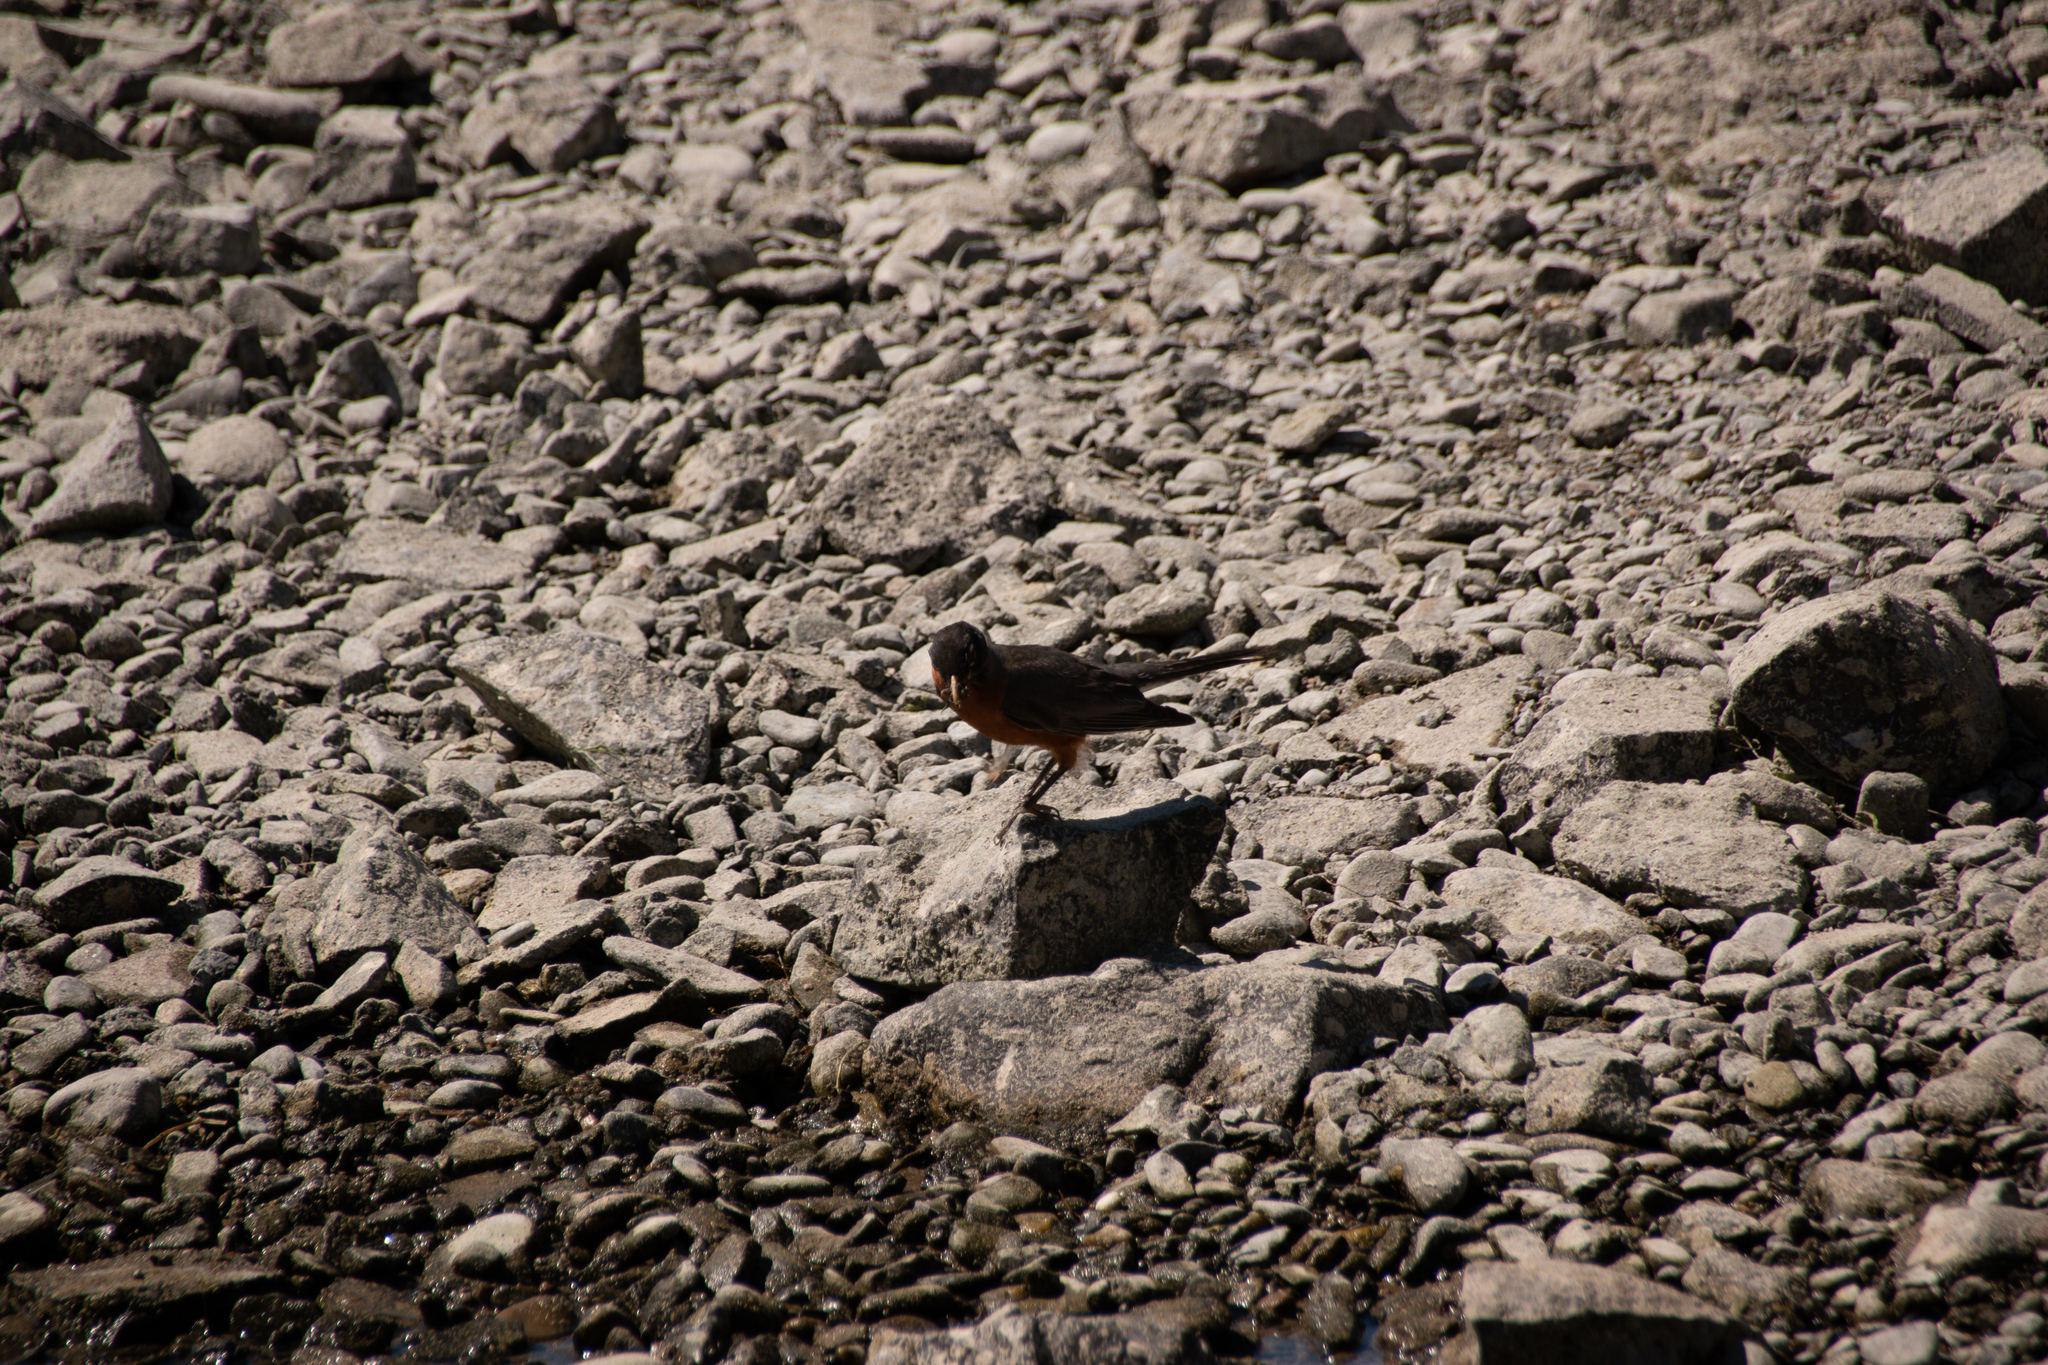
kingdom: Animalia
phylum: Chordata
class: Aves
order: Passeriformes
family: Turdidae
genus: Turdus
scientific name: Turdus migratorius
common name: American robin
